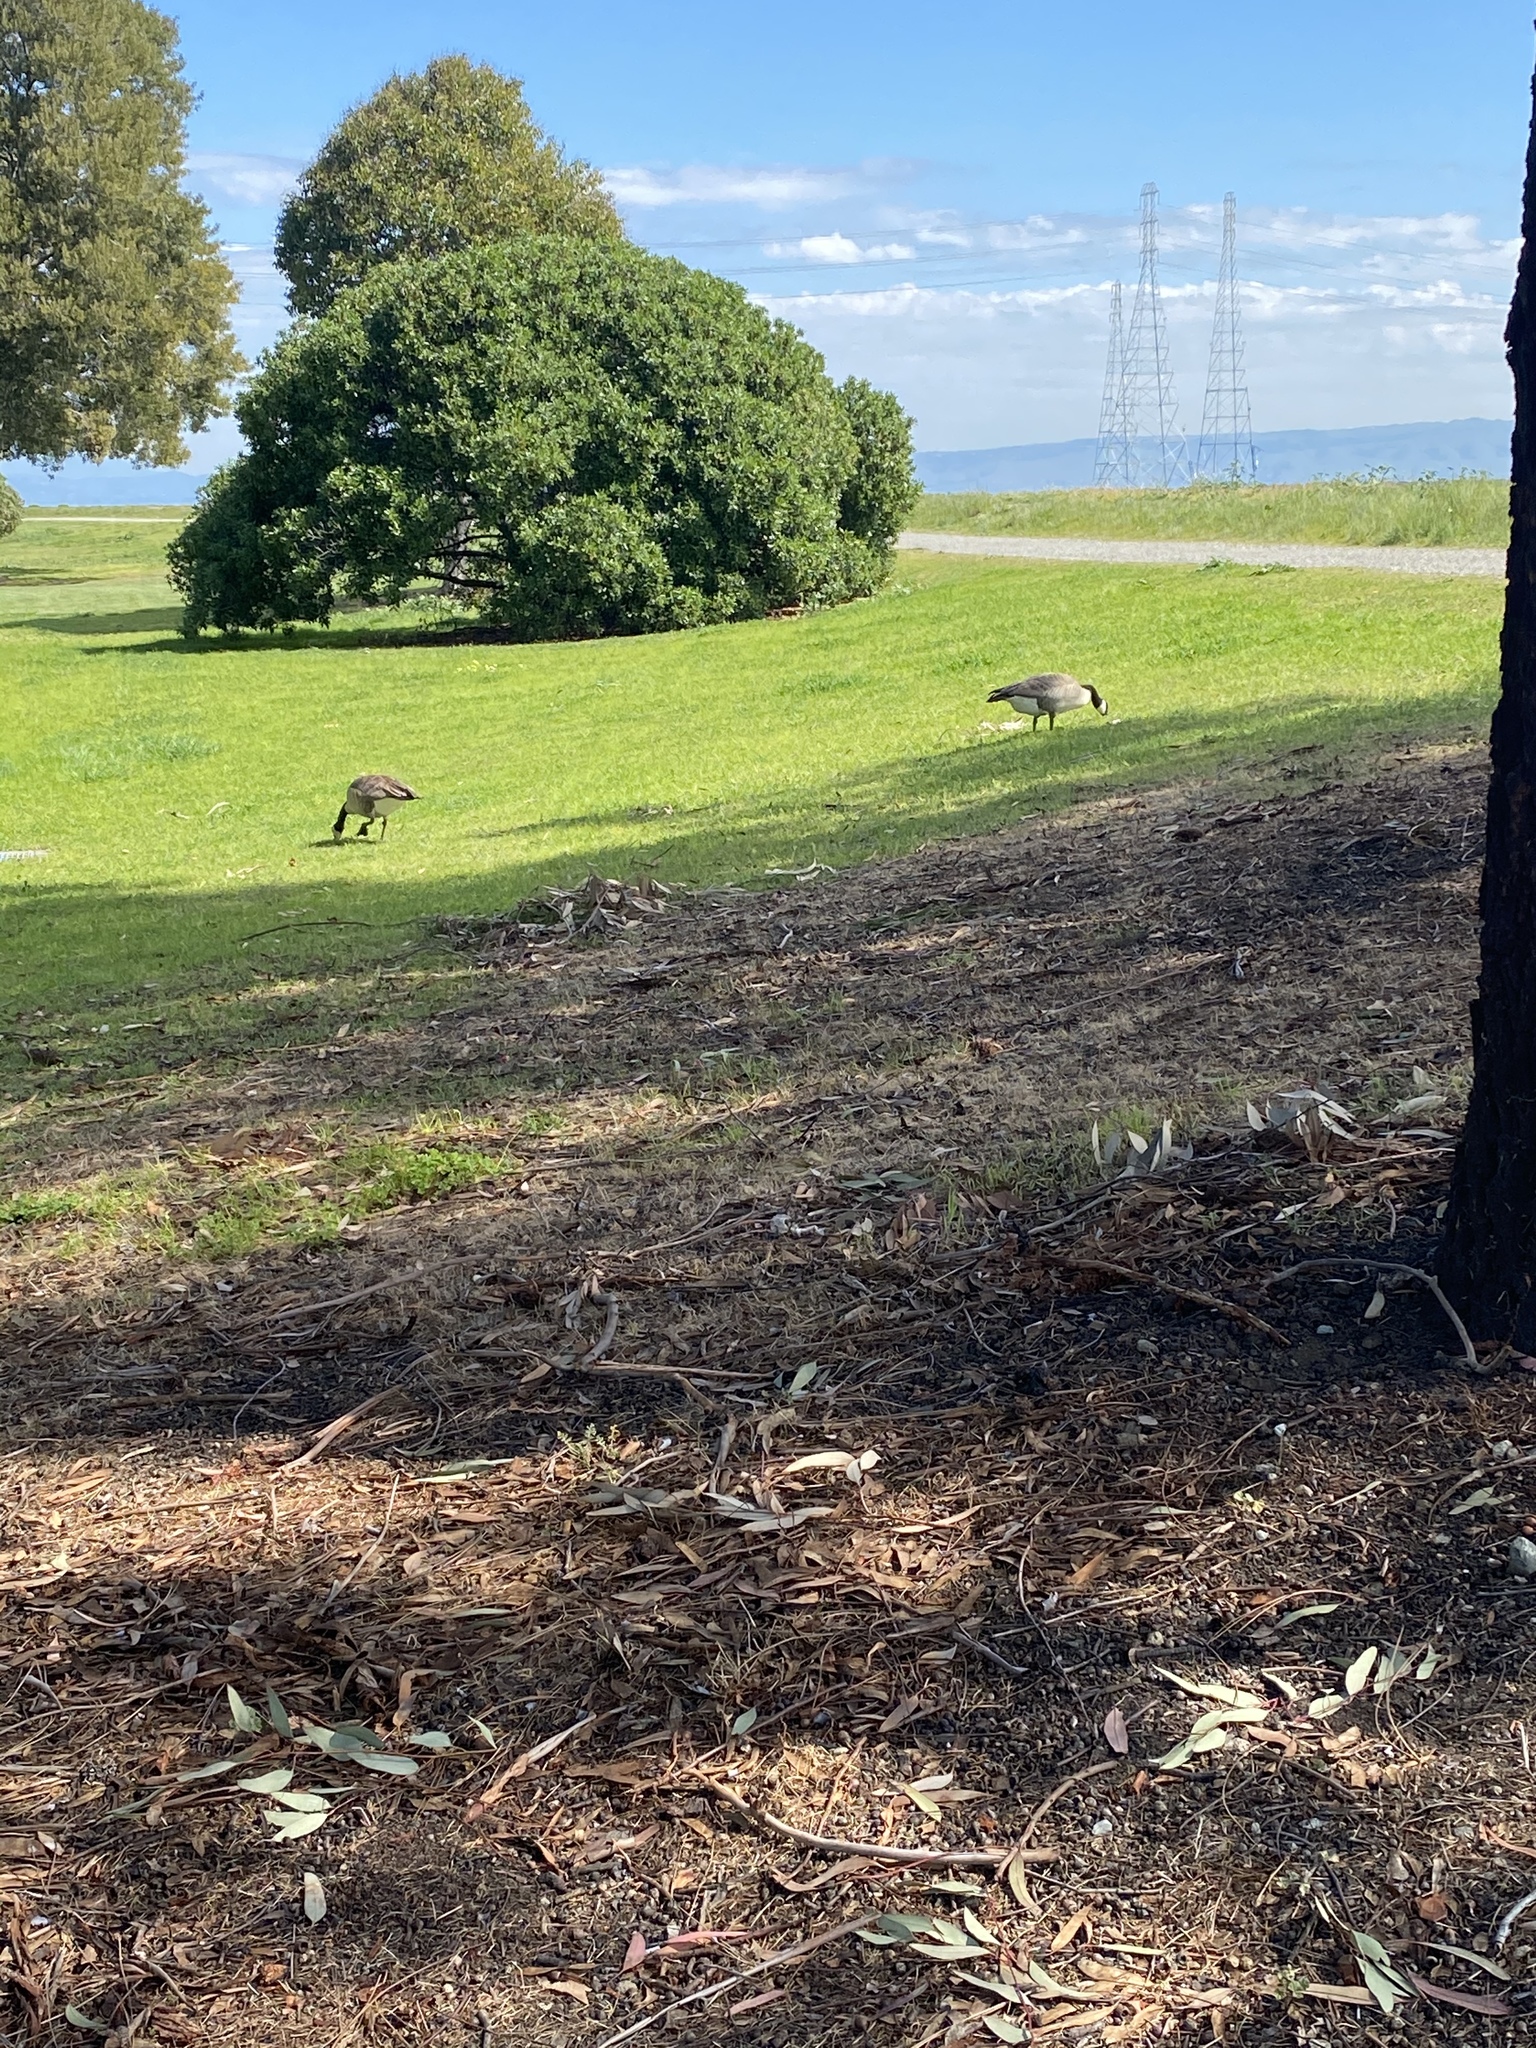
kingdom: Animalia
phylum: Chordata
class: Aves
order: Anseriformes
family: Anatidae
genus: Branta
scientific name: Branta canadensis
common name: Canada goose
